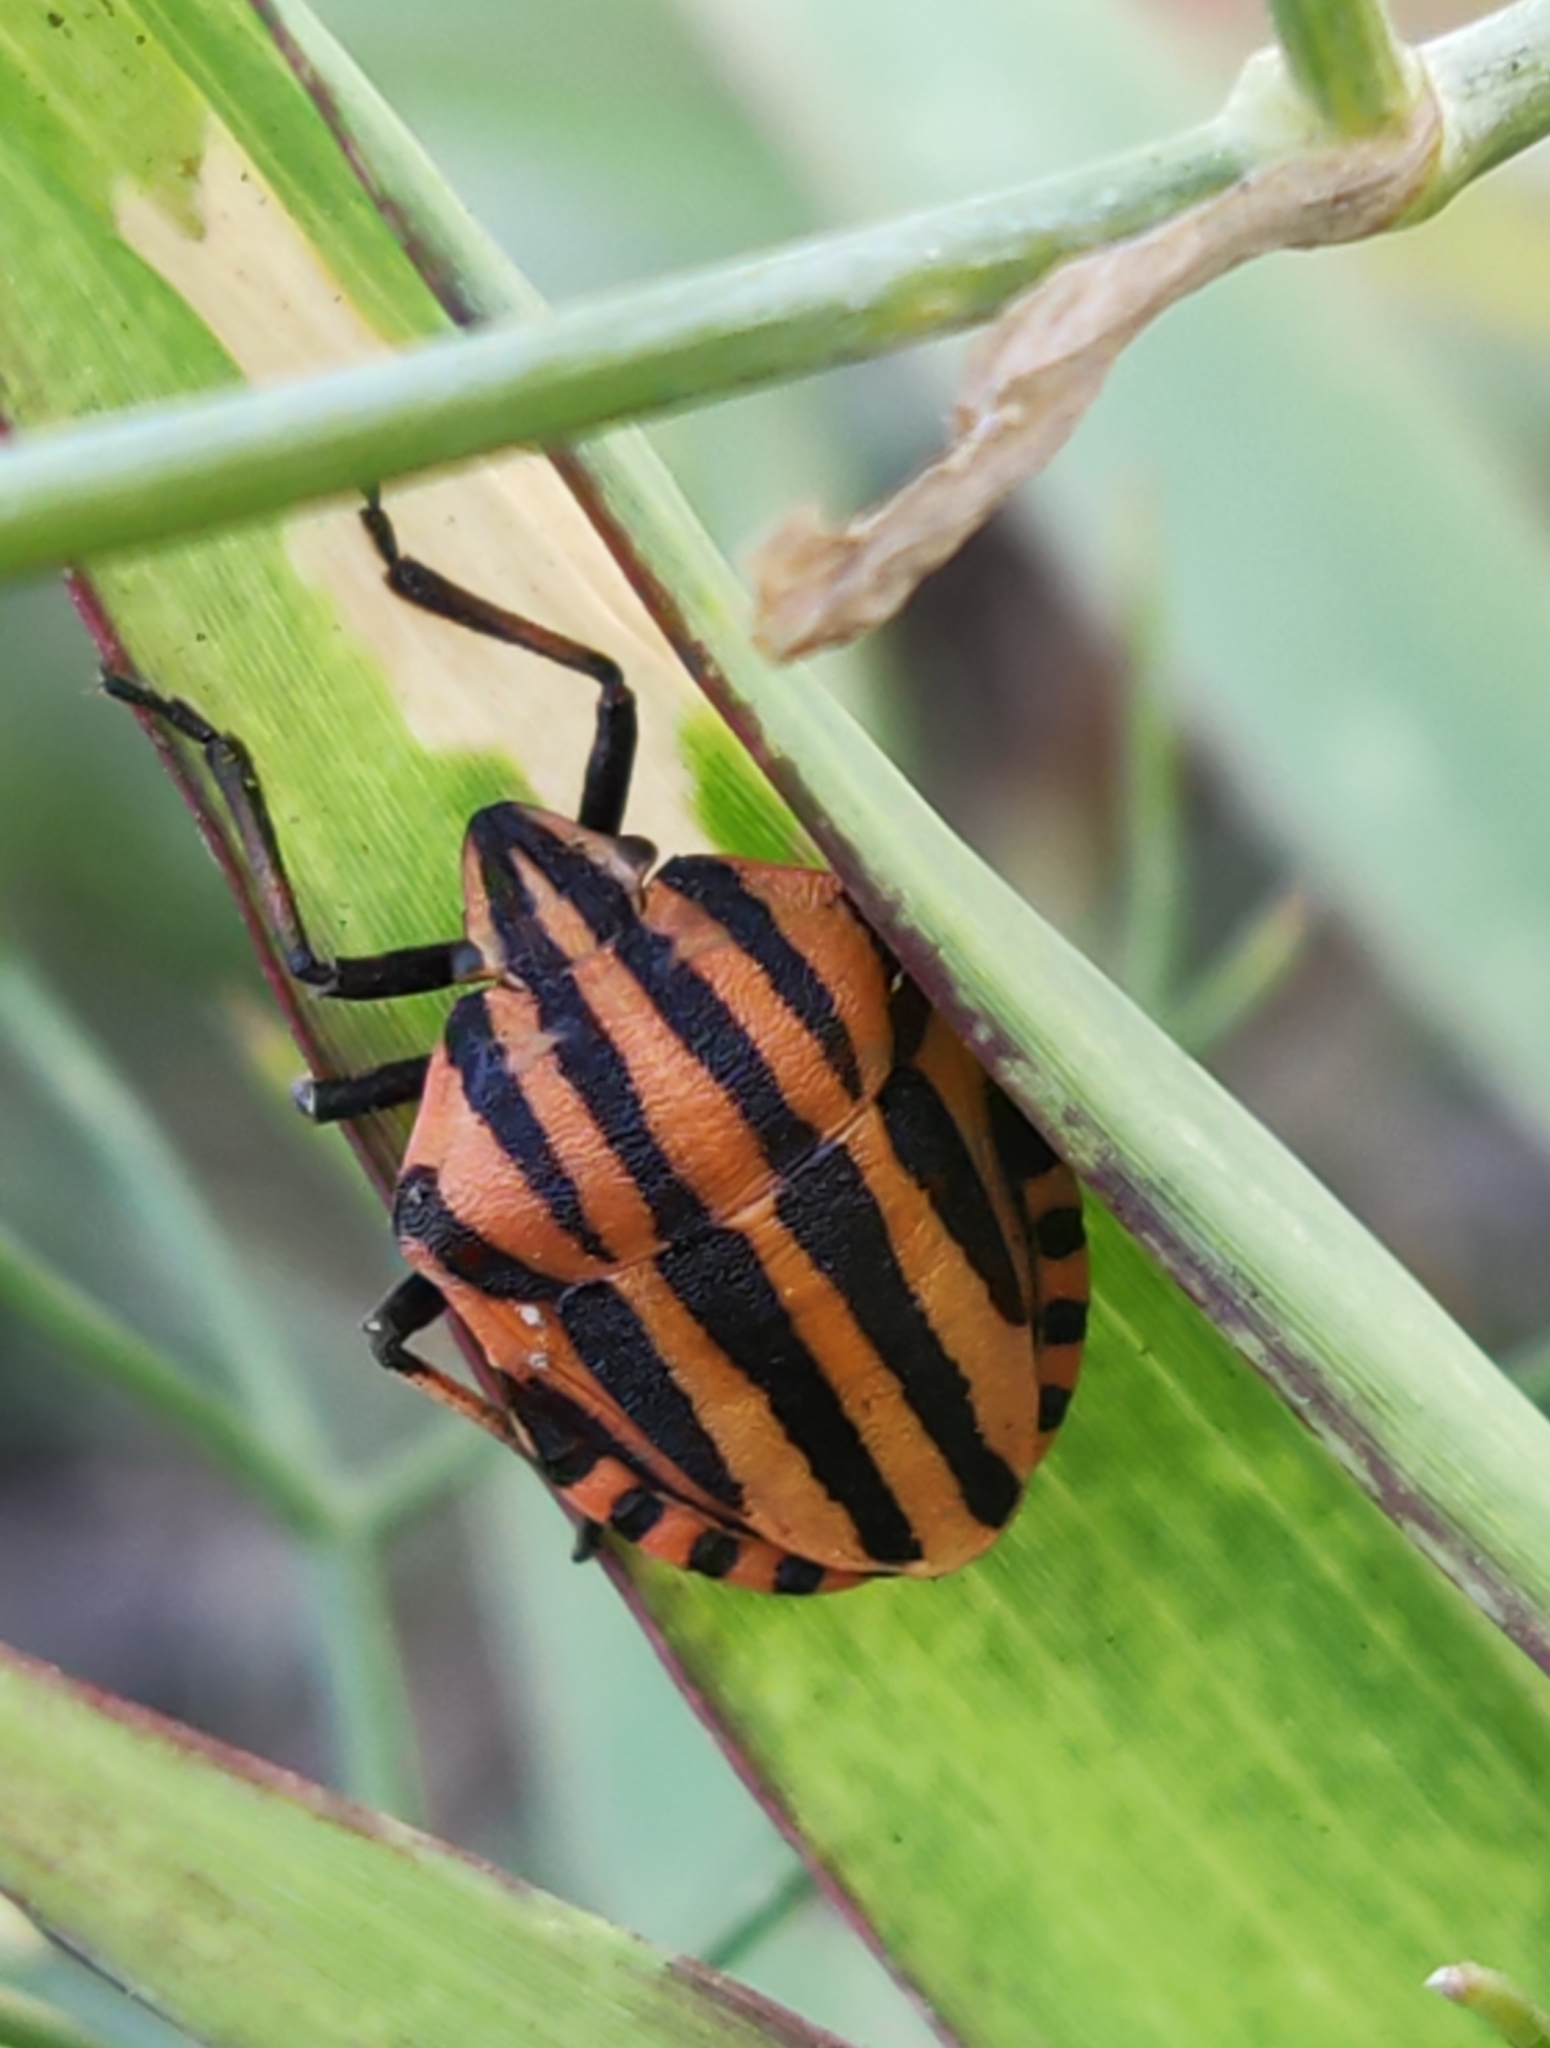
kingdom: Animalia
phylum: Arthropoda
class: Insecta
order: Hemiptera
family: Pentatomidae
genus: Graphosoma
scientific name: Graphosoma italicum
